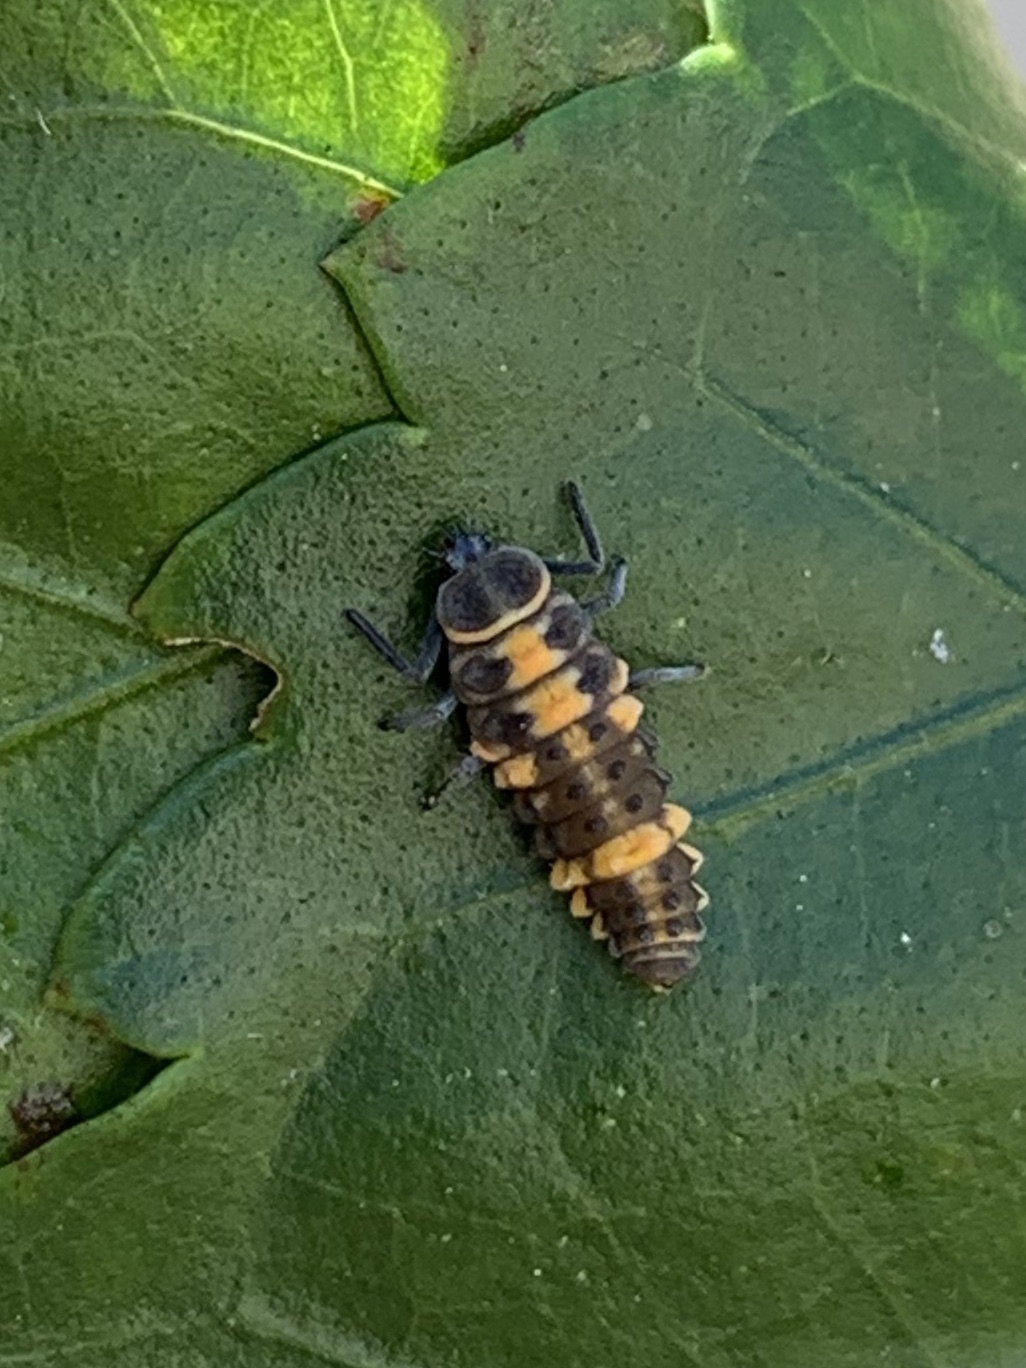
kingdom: Animalia
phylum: Arthropoda
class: Insecta
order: Coleoptera
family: Coccinellidae
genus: Coelophora
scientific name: Coelophora inaequalis
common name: Common australian lady beetle
